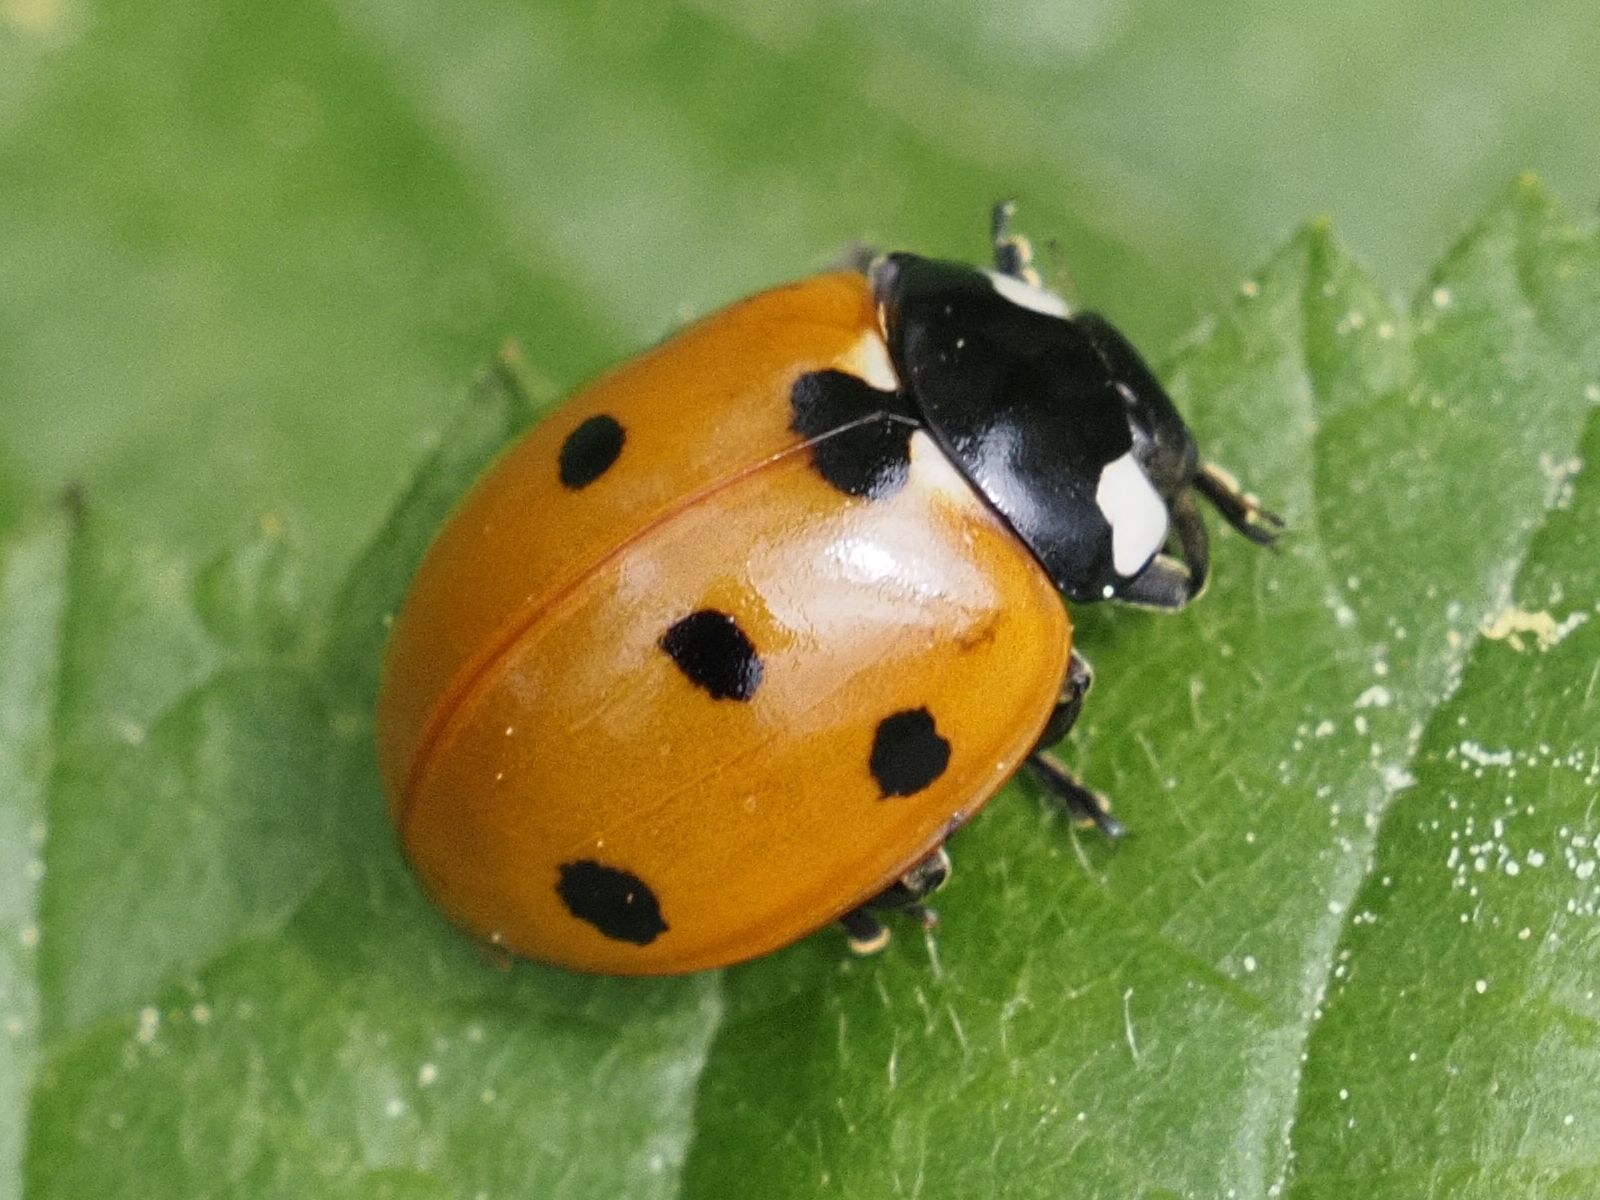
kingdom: Animalia
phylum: Arthropoda
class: Insecta
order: Coleoptera
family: Coccinellidae
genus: Coccinella
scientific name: Coccinella septempunctata
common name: Sevenspotted lady beetle
